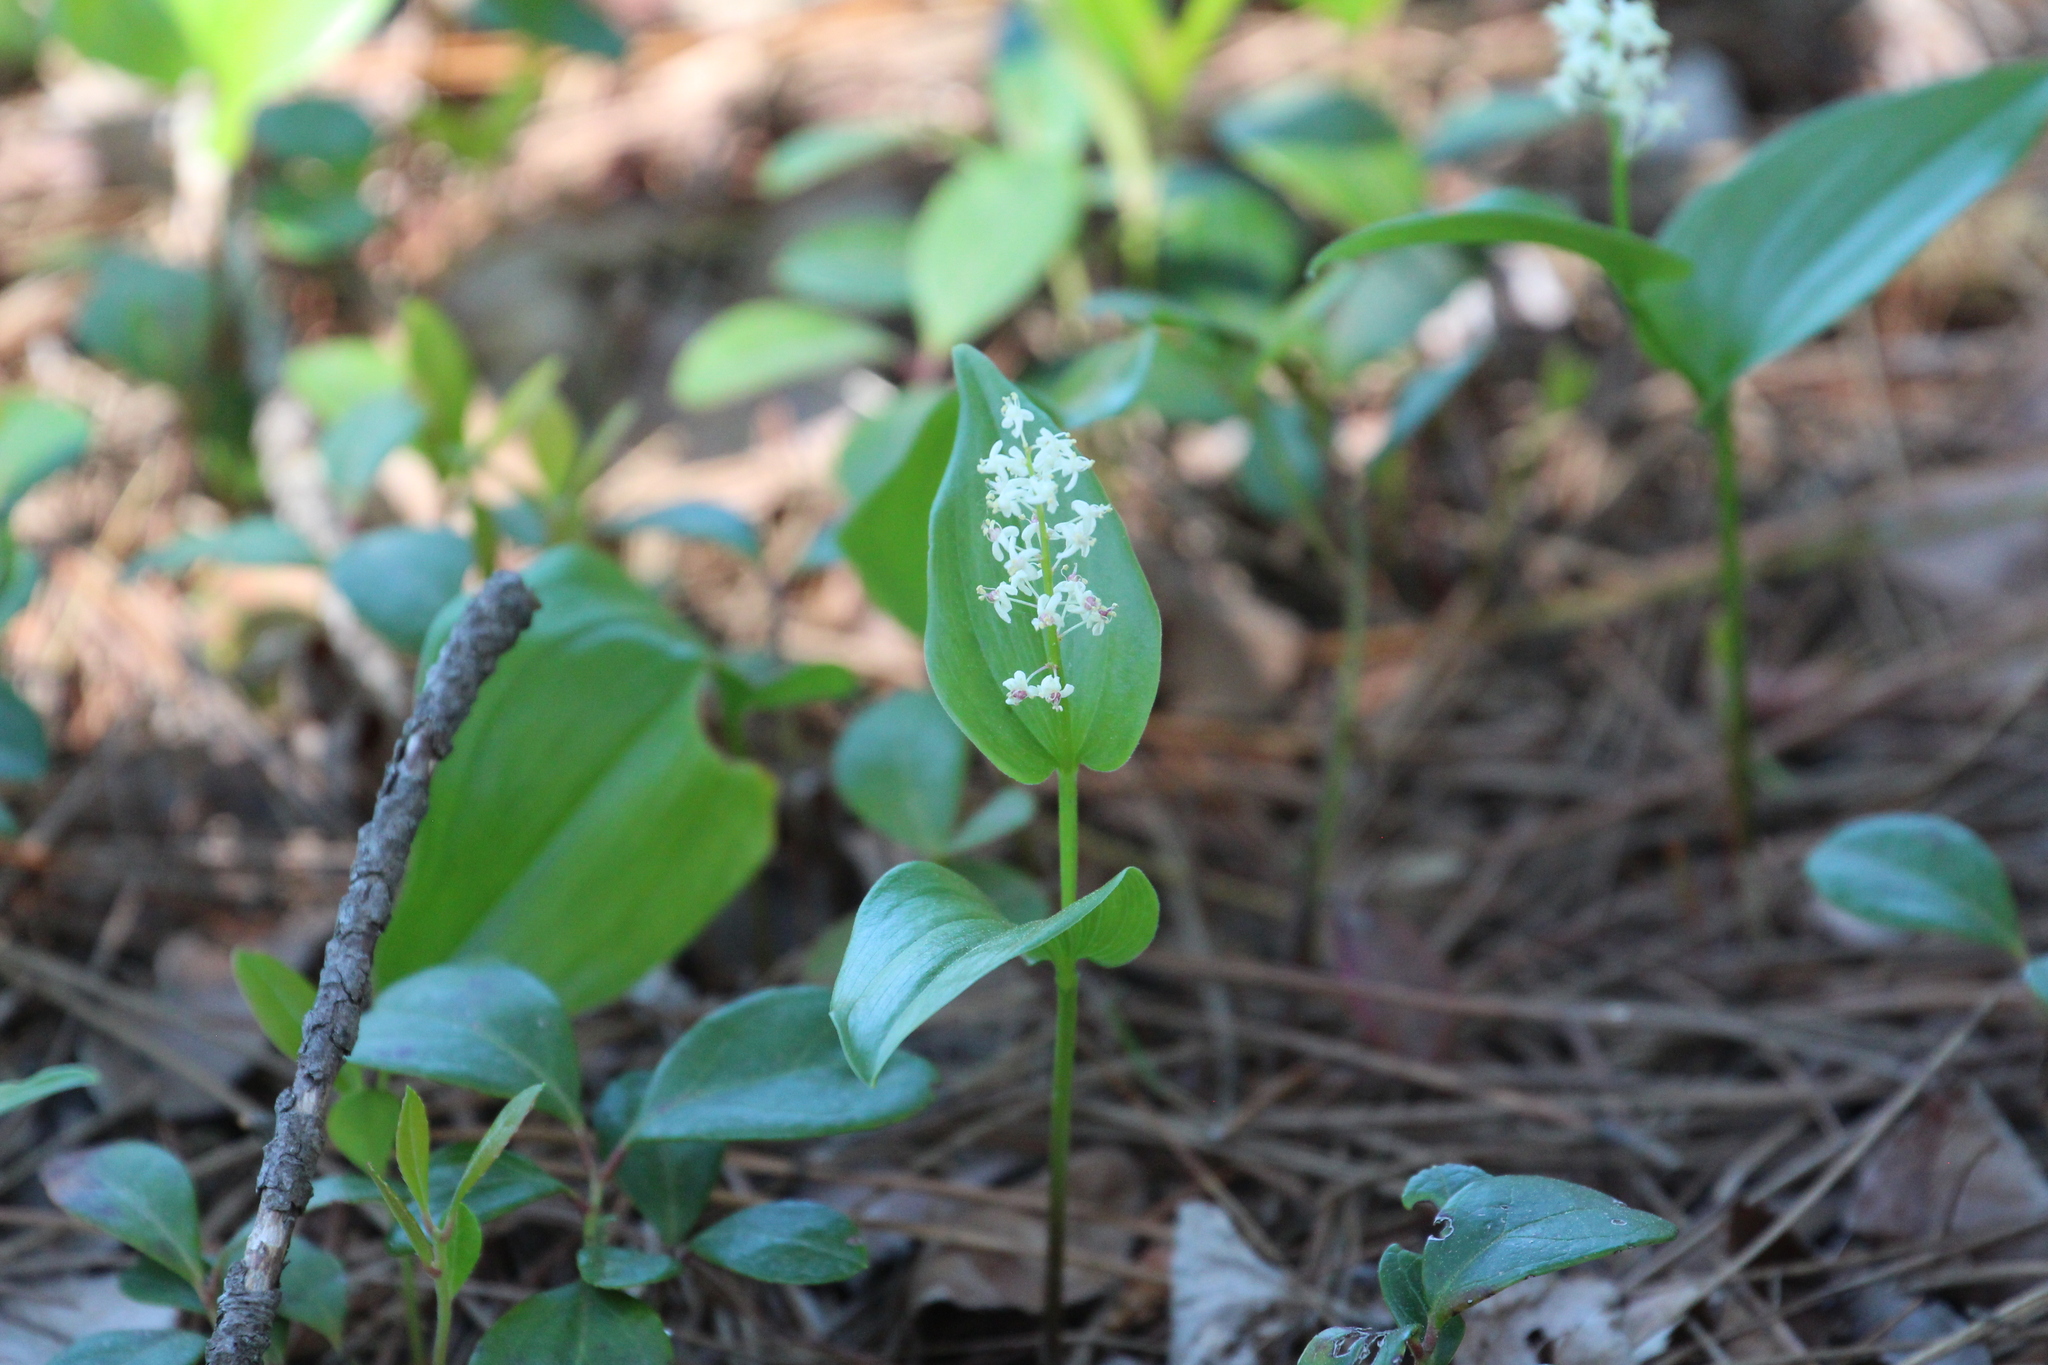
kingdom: Plantae
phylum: Tracheophyta
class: Liliopsida
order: Asparagales
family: Asparagaceae
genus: Maianthemum
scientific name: Maianthemum canadense
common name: False lily-of-the-valley
